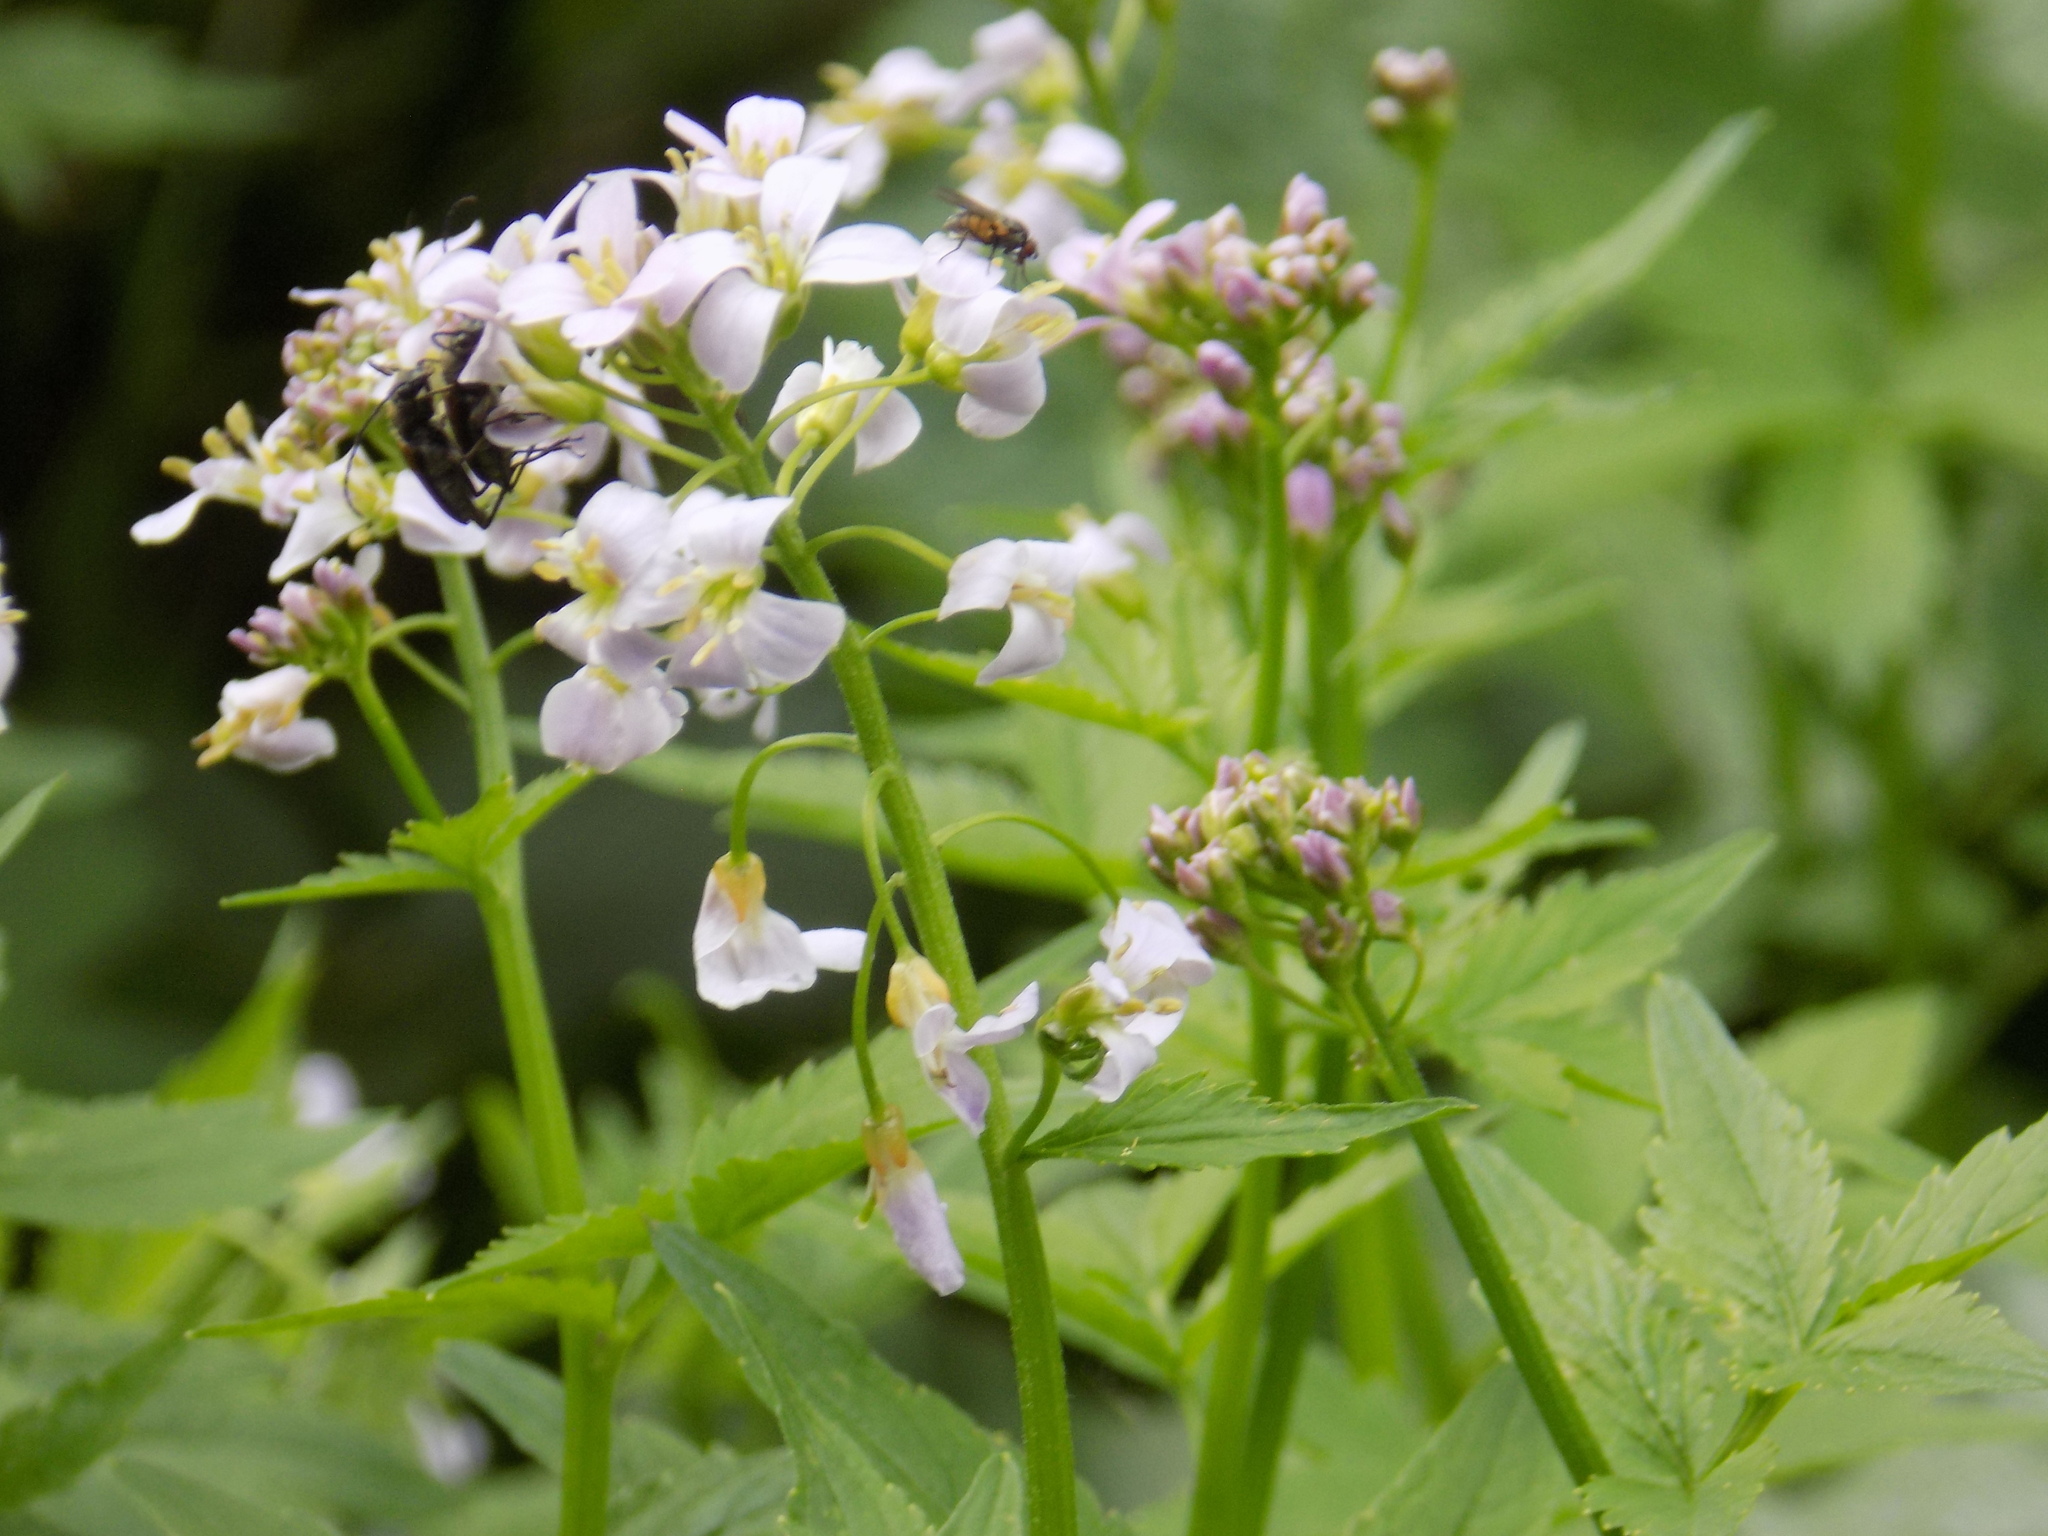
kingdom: Plantae
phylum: Tracheophyta
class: Magnoliopsida
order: Brassicales
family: Brassicaceae
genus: Cardamine
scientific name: Cardamine macrophylla
